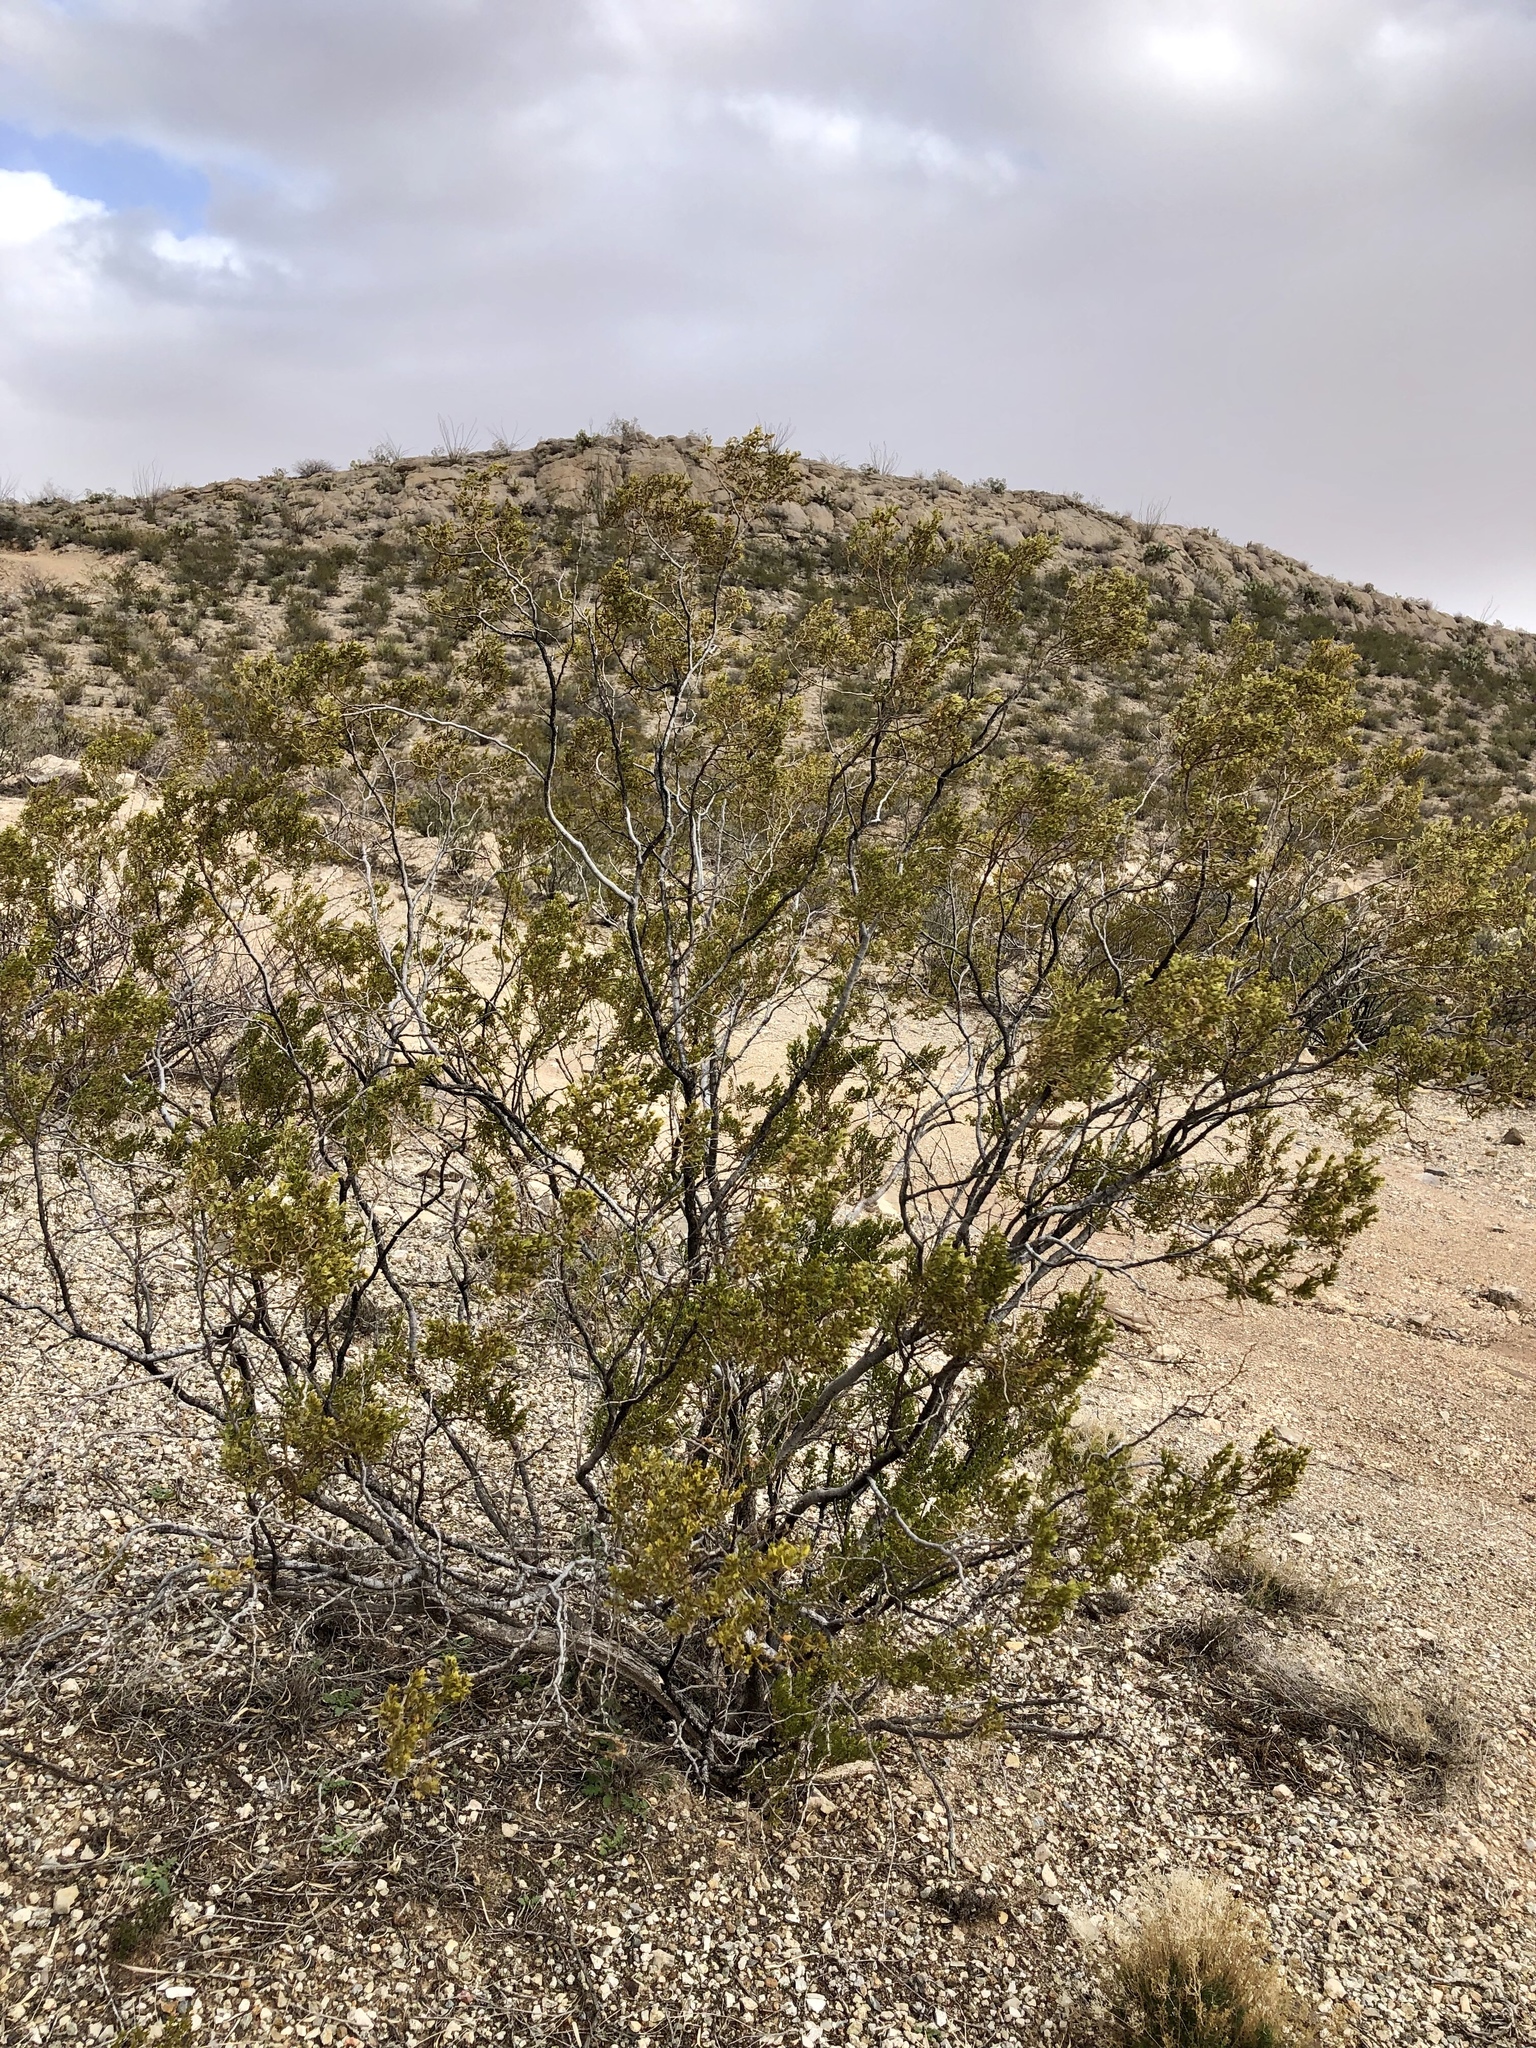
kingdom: Plantae
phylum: Tracheophyta
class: Magnoliopsida
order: Zygophyllales
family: Zygophyllaceae
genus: Larrea
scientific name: Larrea tridentata
